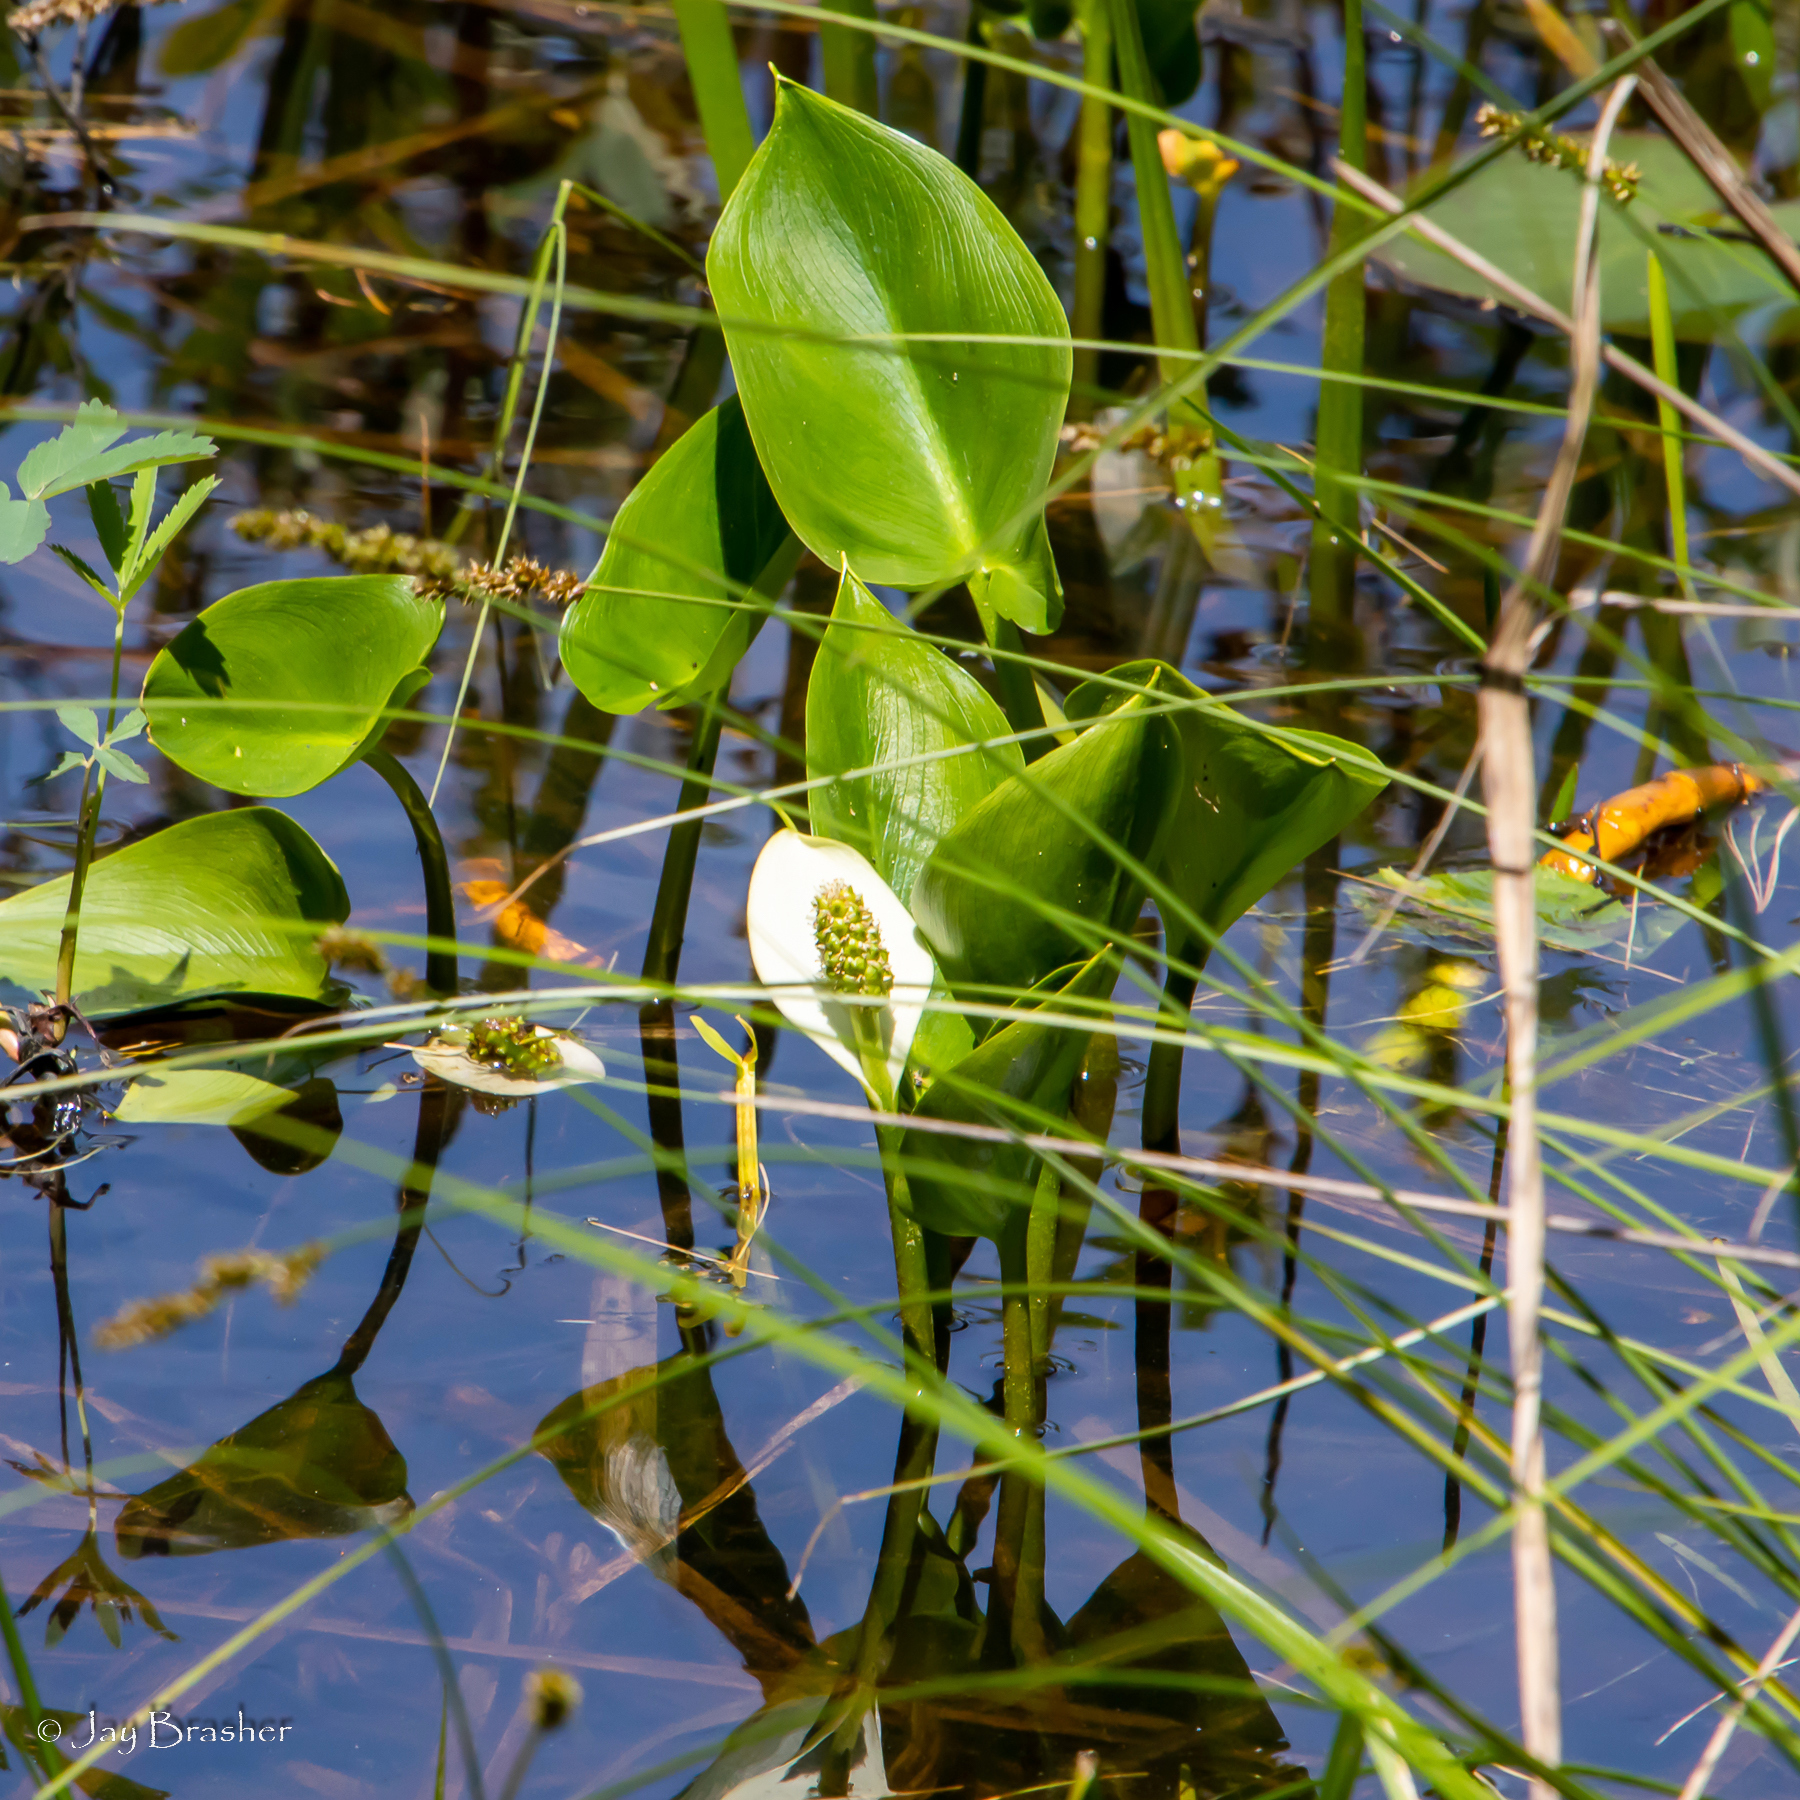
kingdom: Plantae
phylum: Tracheophyta
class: Liliopsida
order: Alismatales
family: Araceae
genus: Calla
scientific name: Calla palustris
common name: Bog arum
